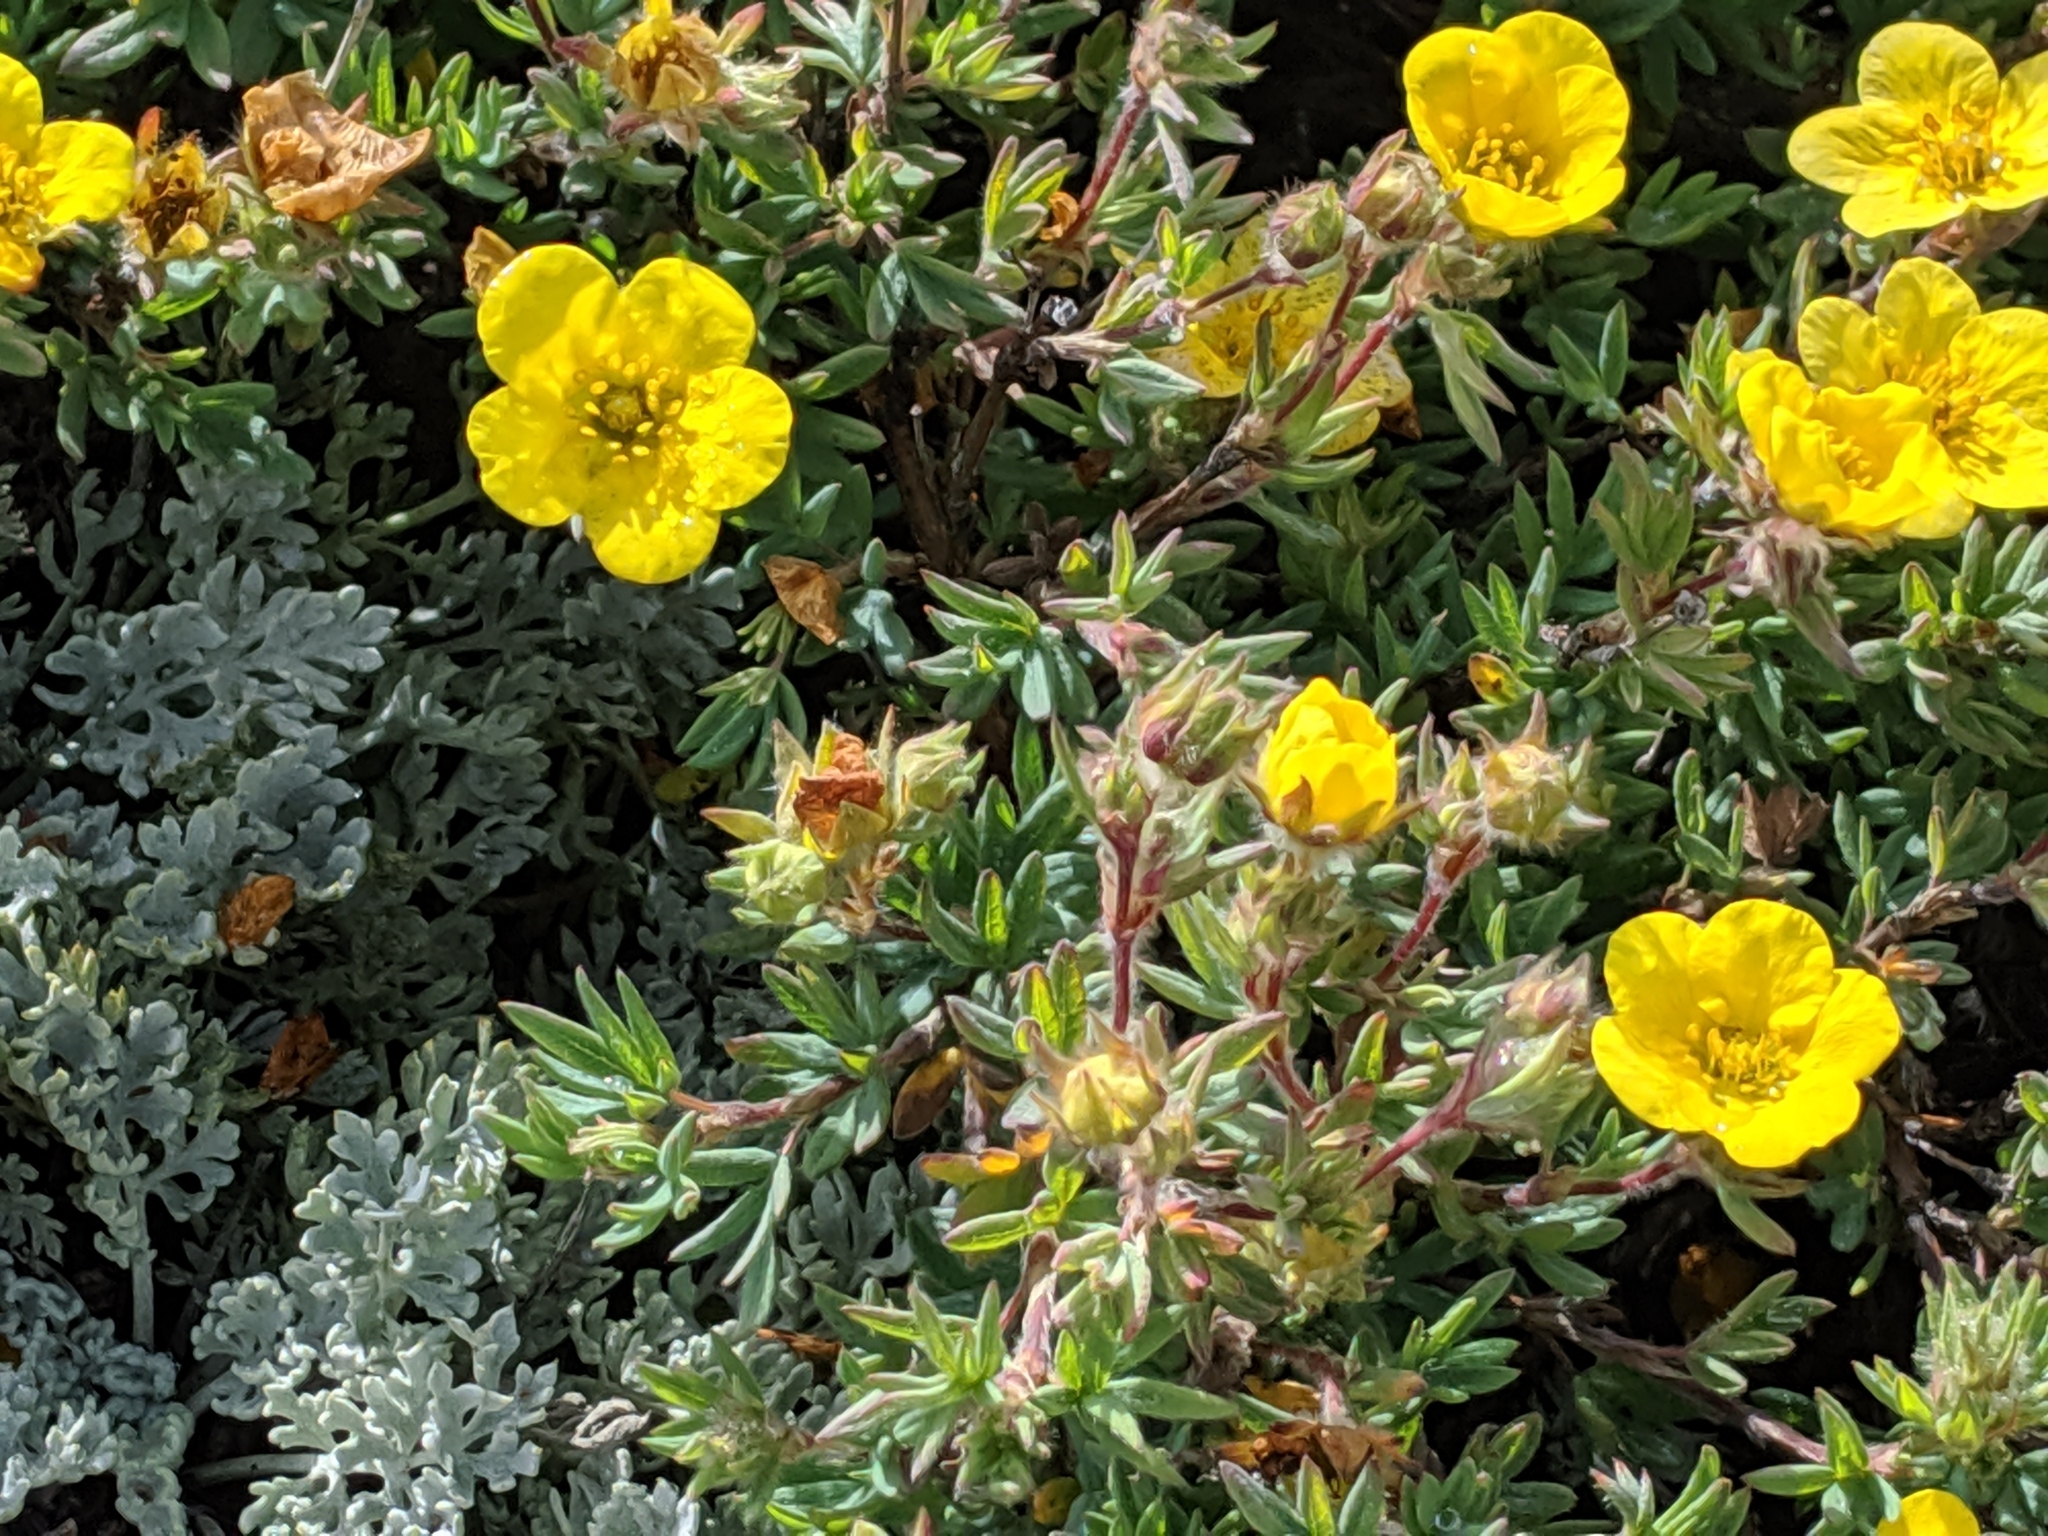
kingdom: Plantae
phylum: Tracheophyta
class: Magnoliopsida
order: Rosales
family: Rosaceae
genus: Dasiphora
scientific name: Dasiphora fruticosa
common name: Shrubby cinquefoil
